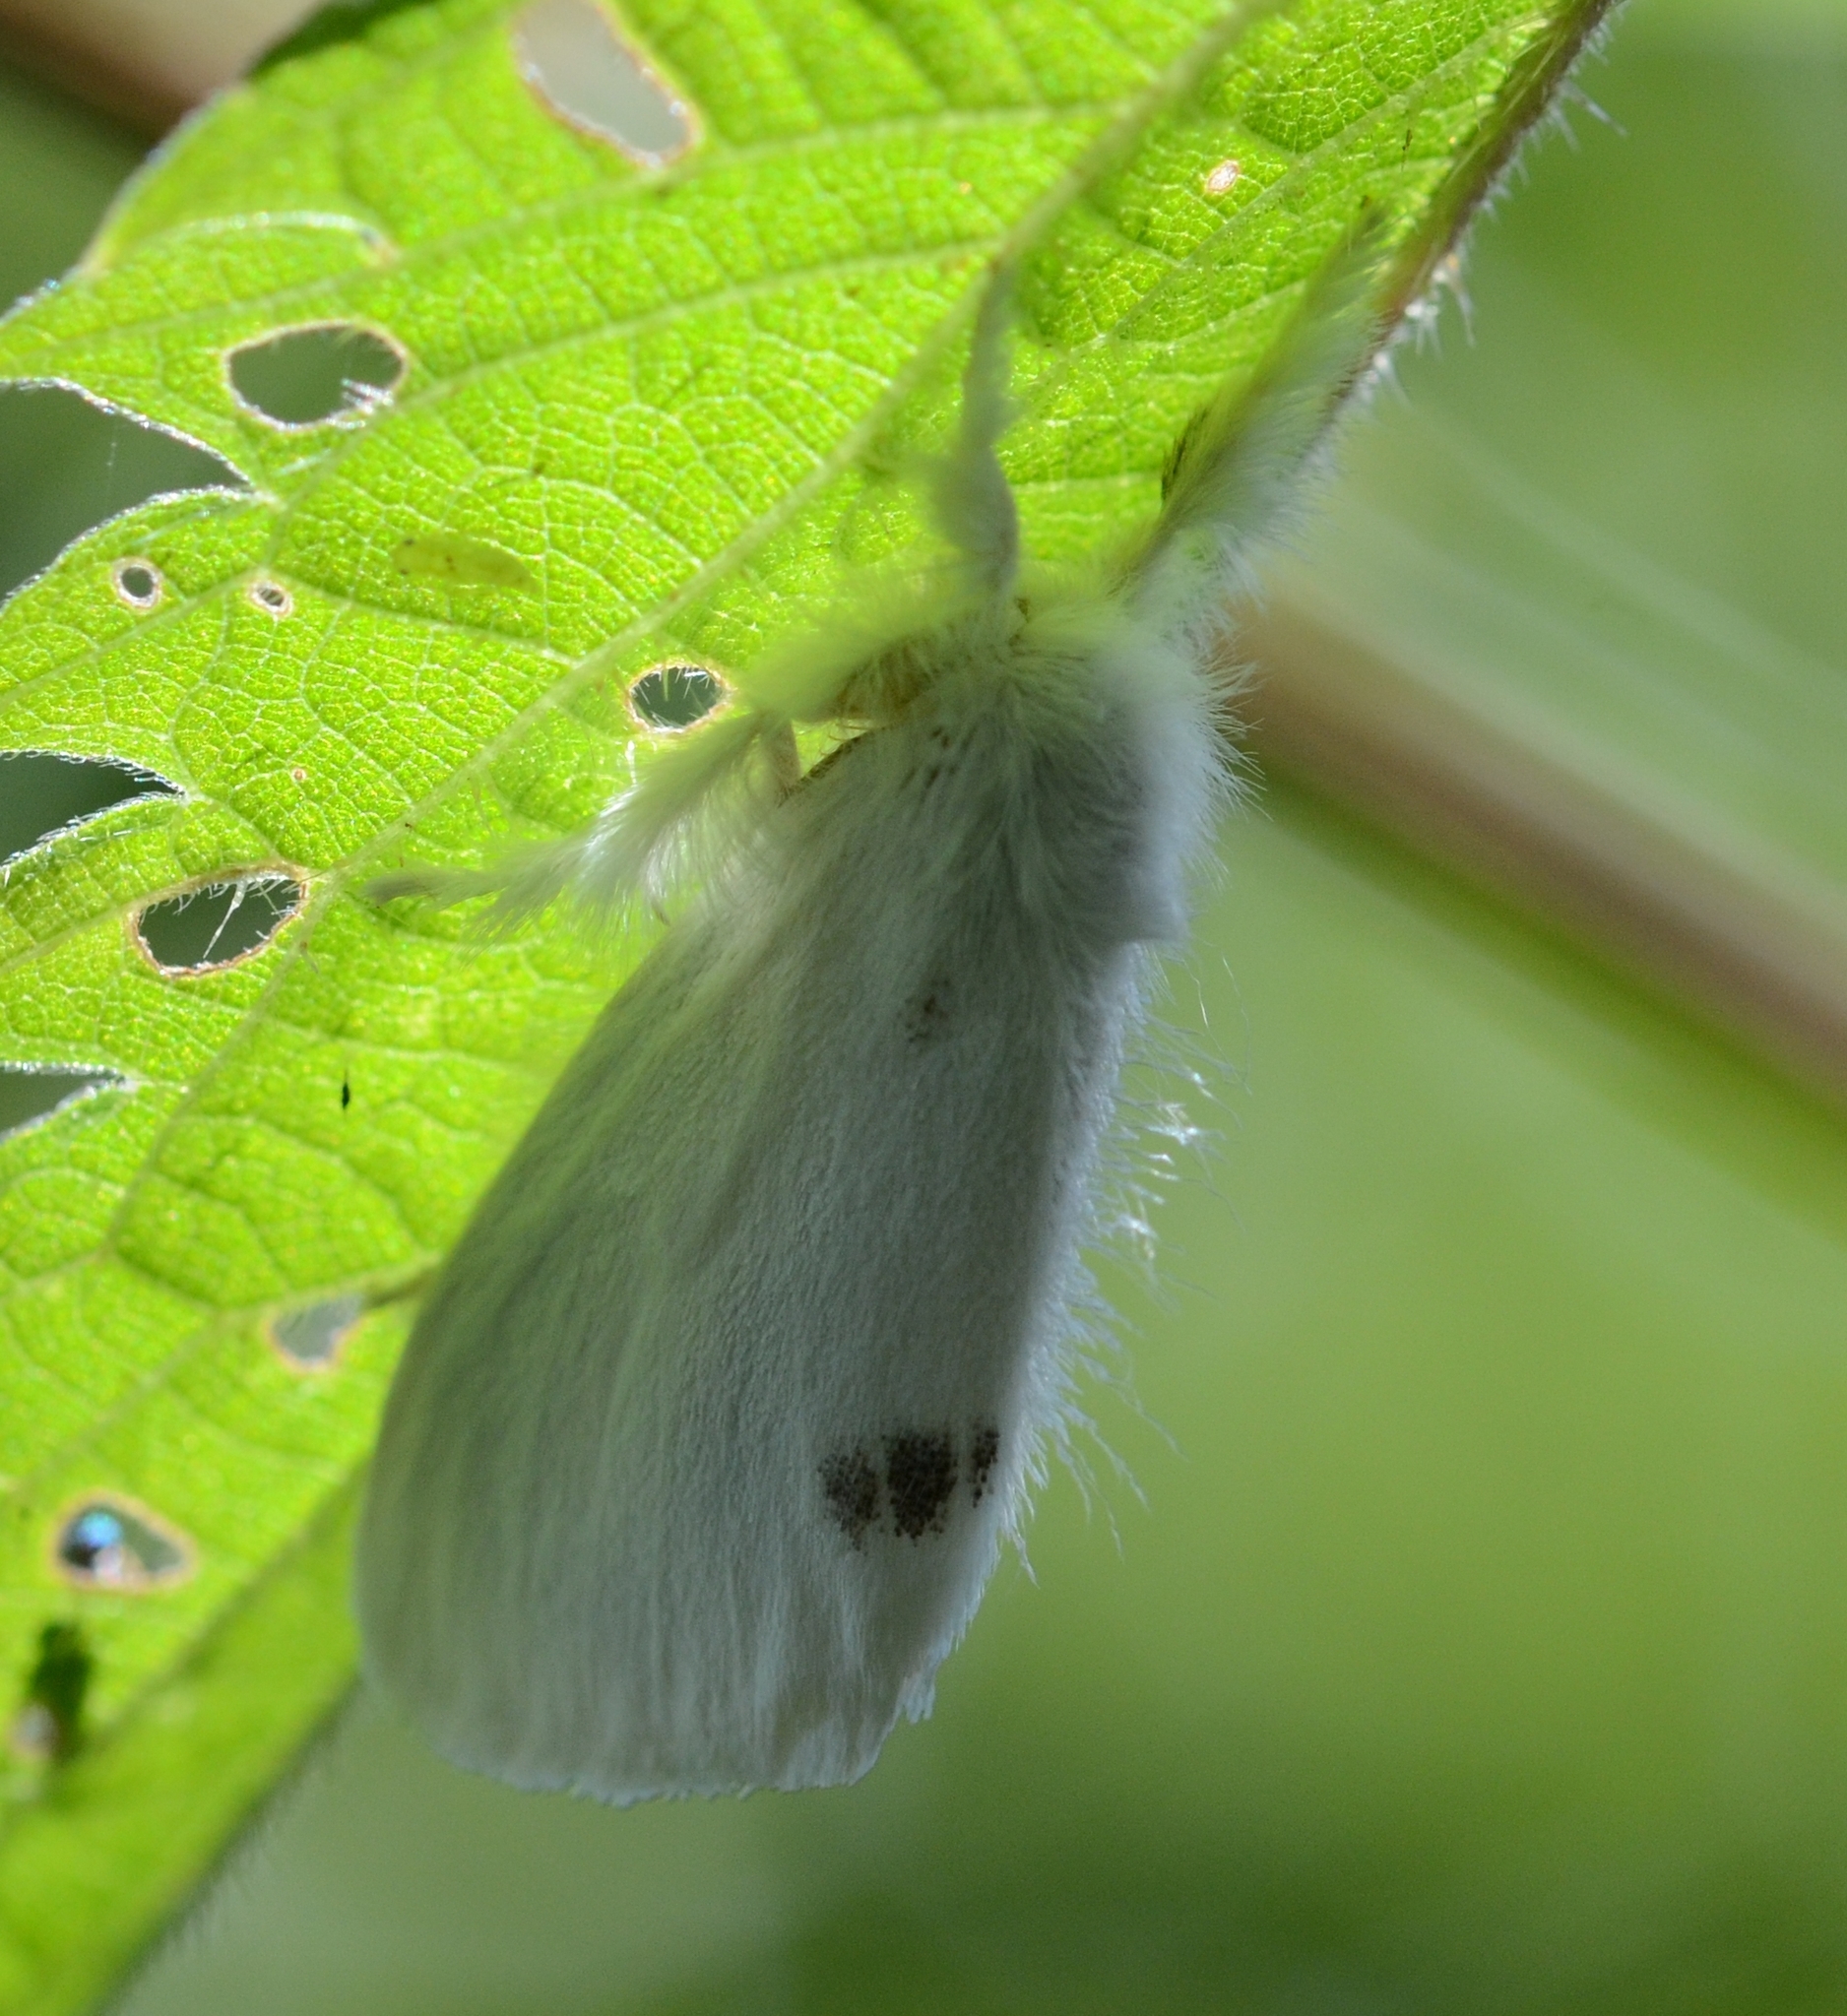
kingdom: Animalia
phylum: Arthropoda
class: Insecta
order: Lepidoptera
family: Erebidae
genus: Sphrageidus
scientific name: Sphrageidus similis
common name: Yellow-tail
